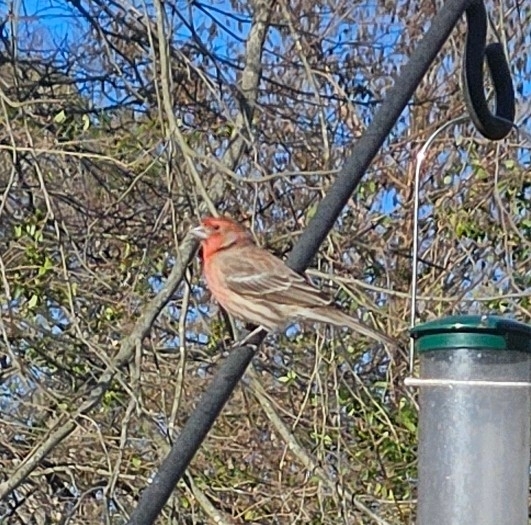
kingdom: Animalia
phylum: Chordata
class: Aves
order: Passeriformes
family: Fringillidae
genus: Haemorhous
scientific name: Haemorhous mexicanus
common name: House finch
